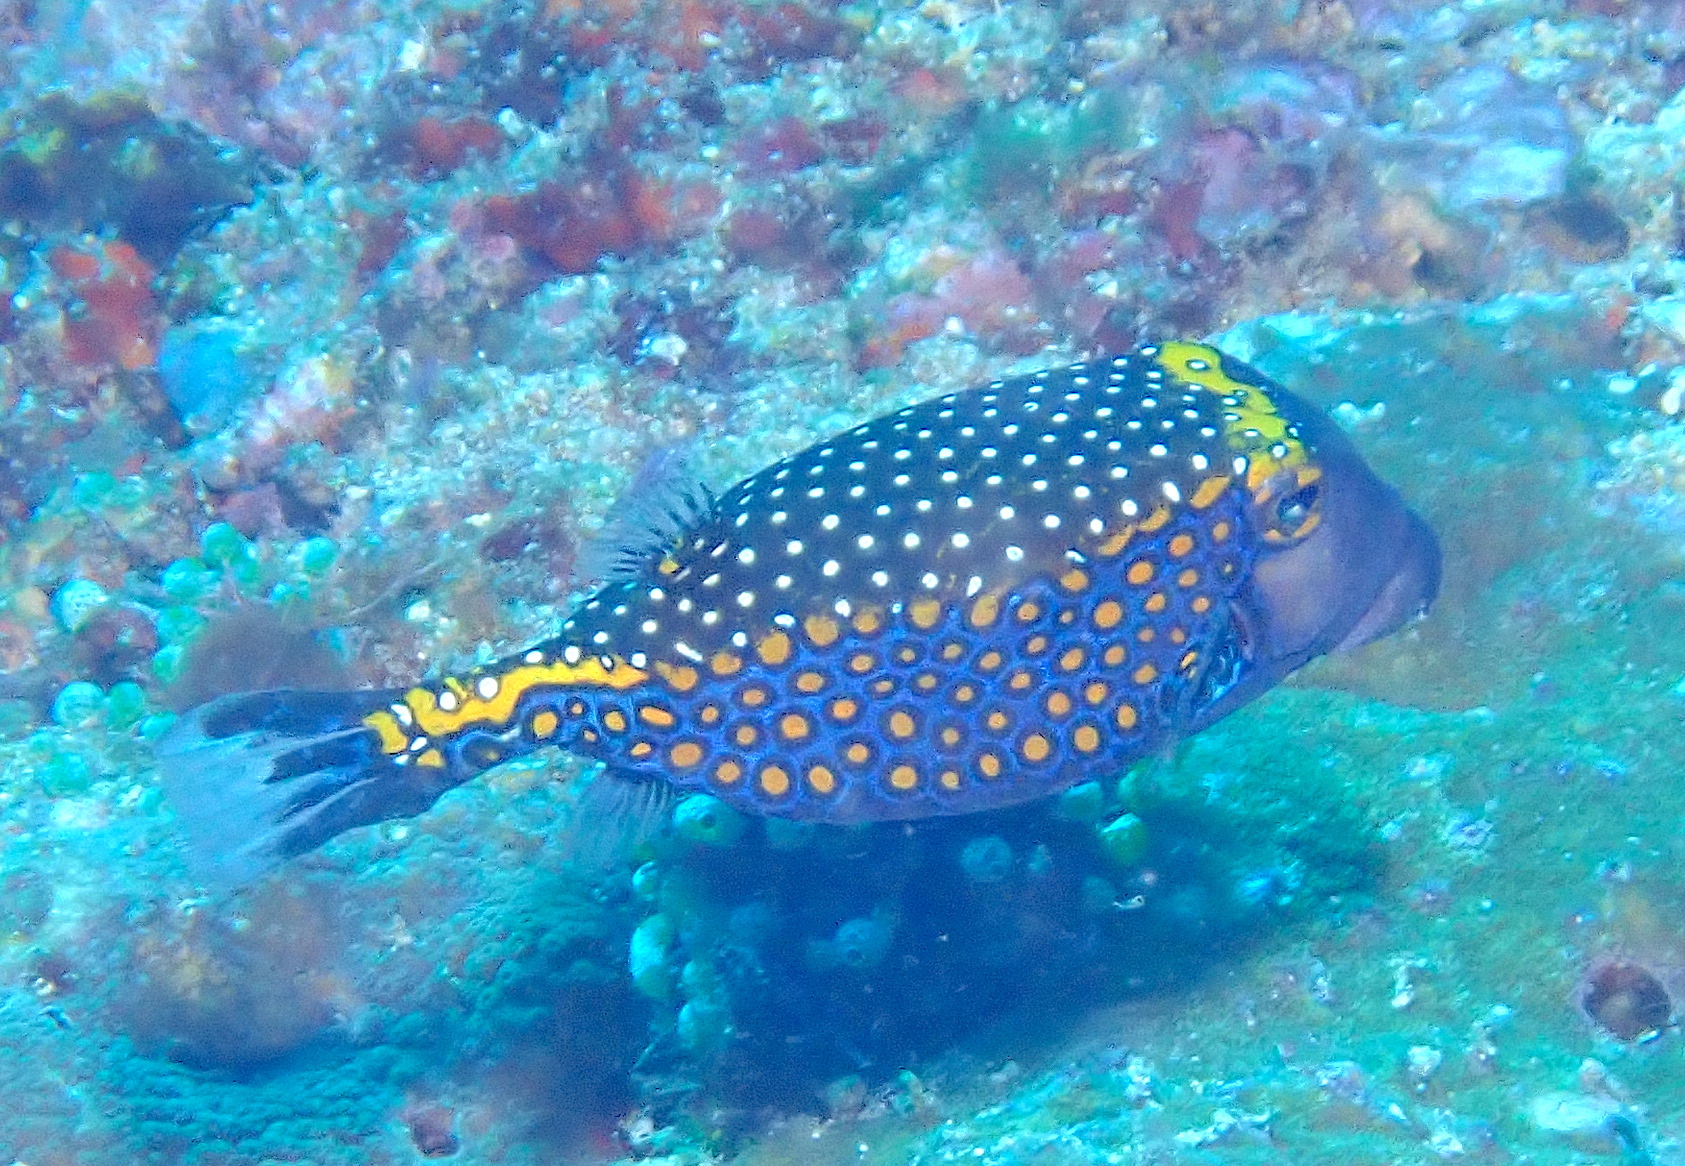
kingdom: Animalia
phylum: Chordata
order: Tetraodontiformes
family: Ostraciidae
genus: Ostracion
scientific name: Ostracion meleagris
